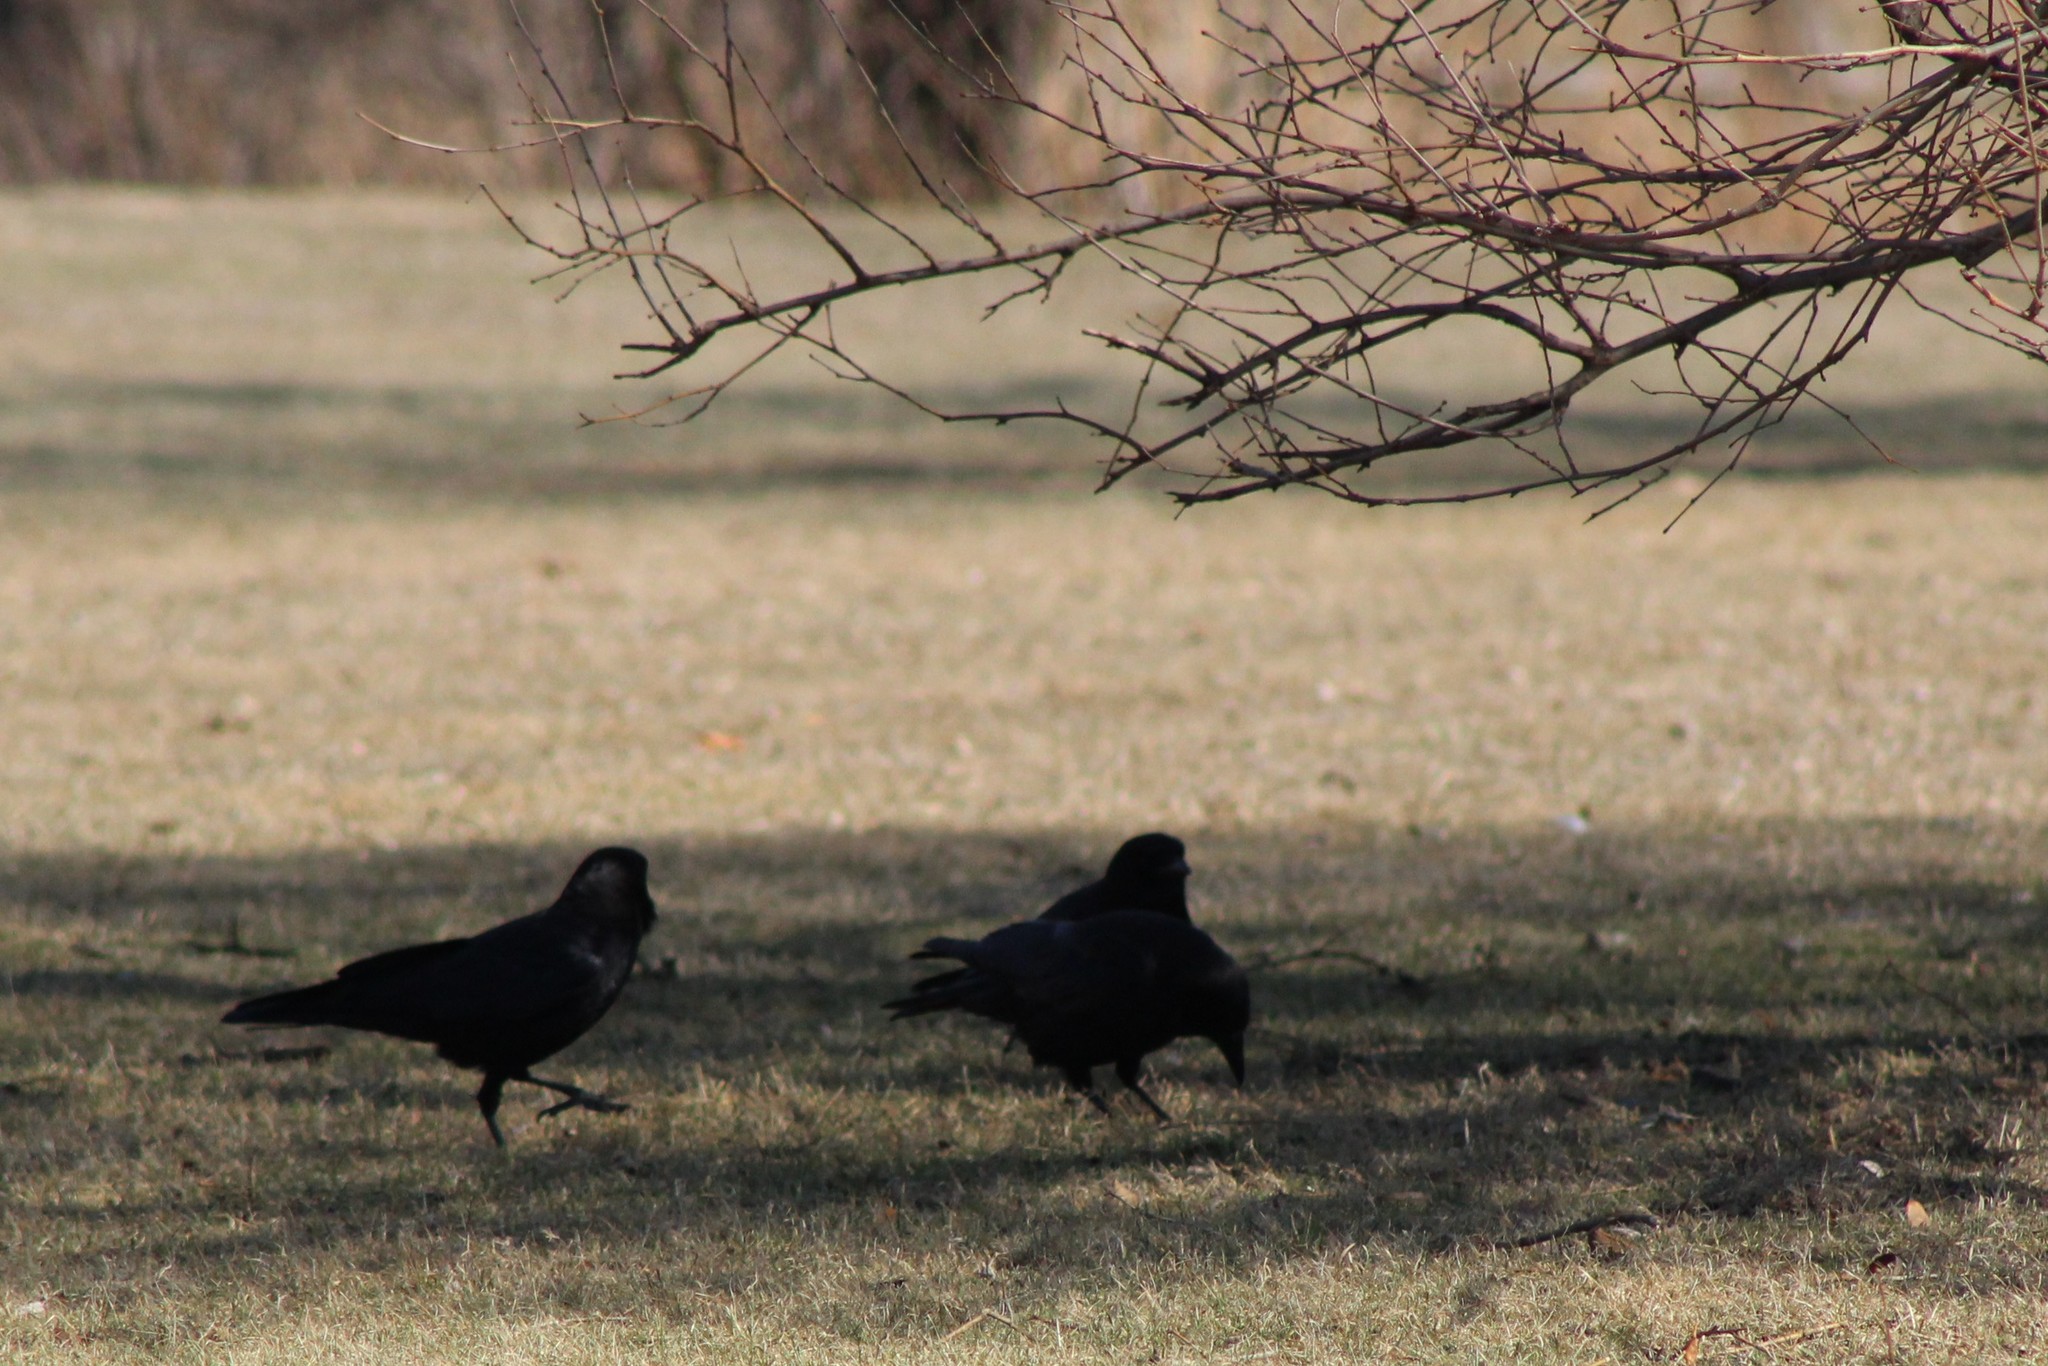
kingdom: Animalia
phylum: Chordata
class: Aves
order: Passeriformes
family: Corvidae
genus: Corvus
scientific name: Corvus brachyrhynchos
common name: American crow
